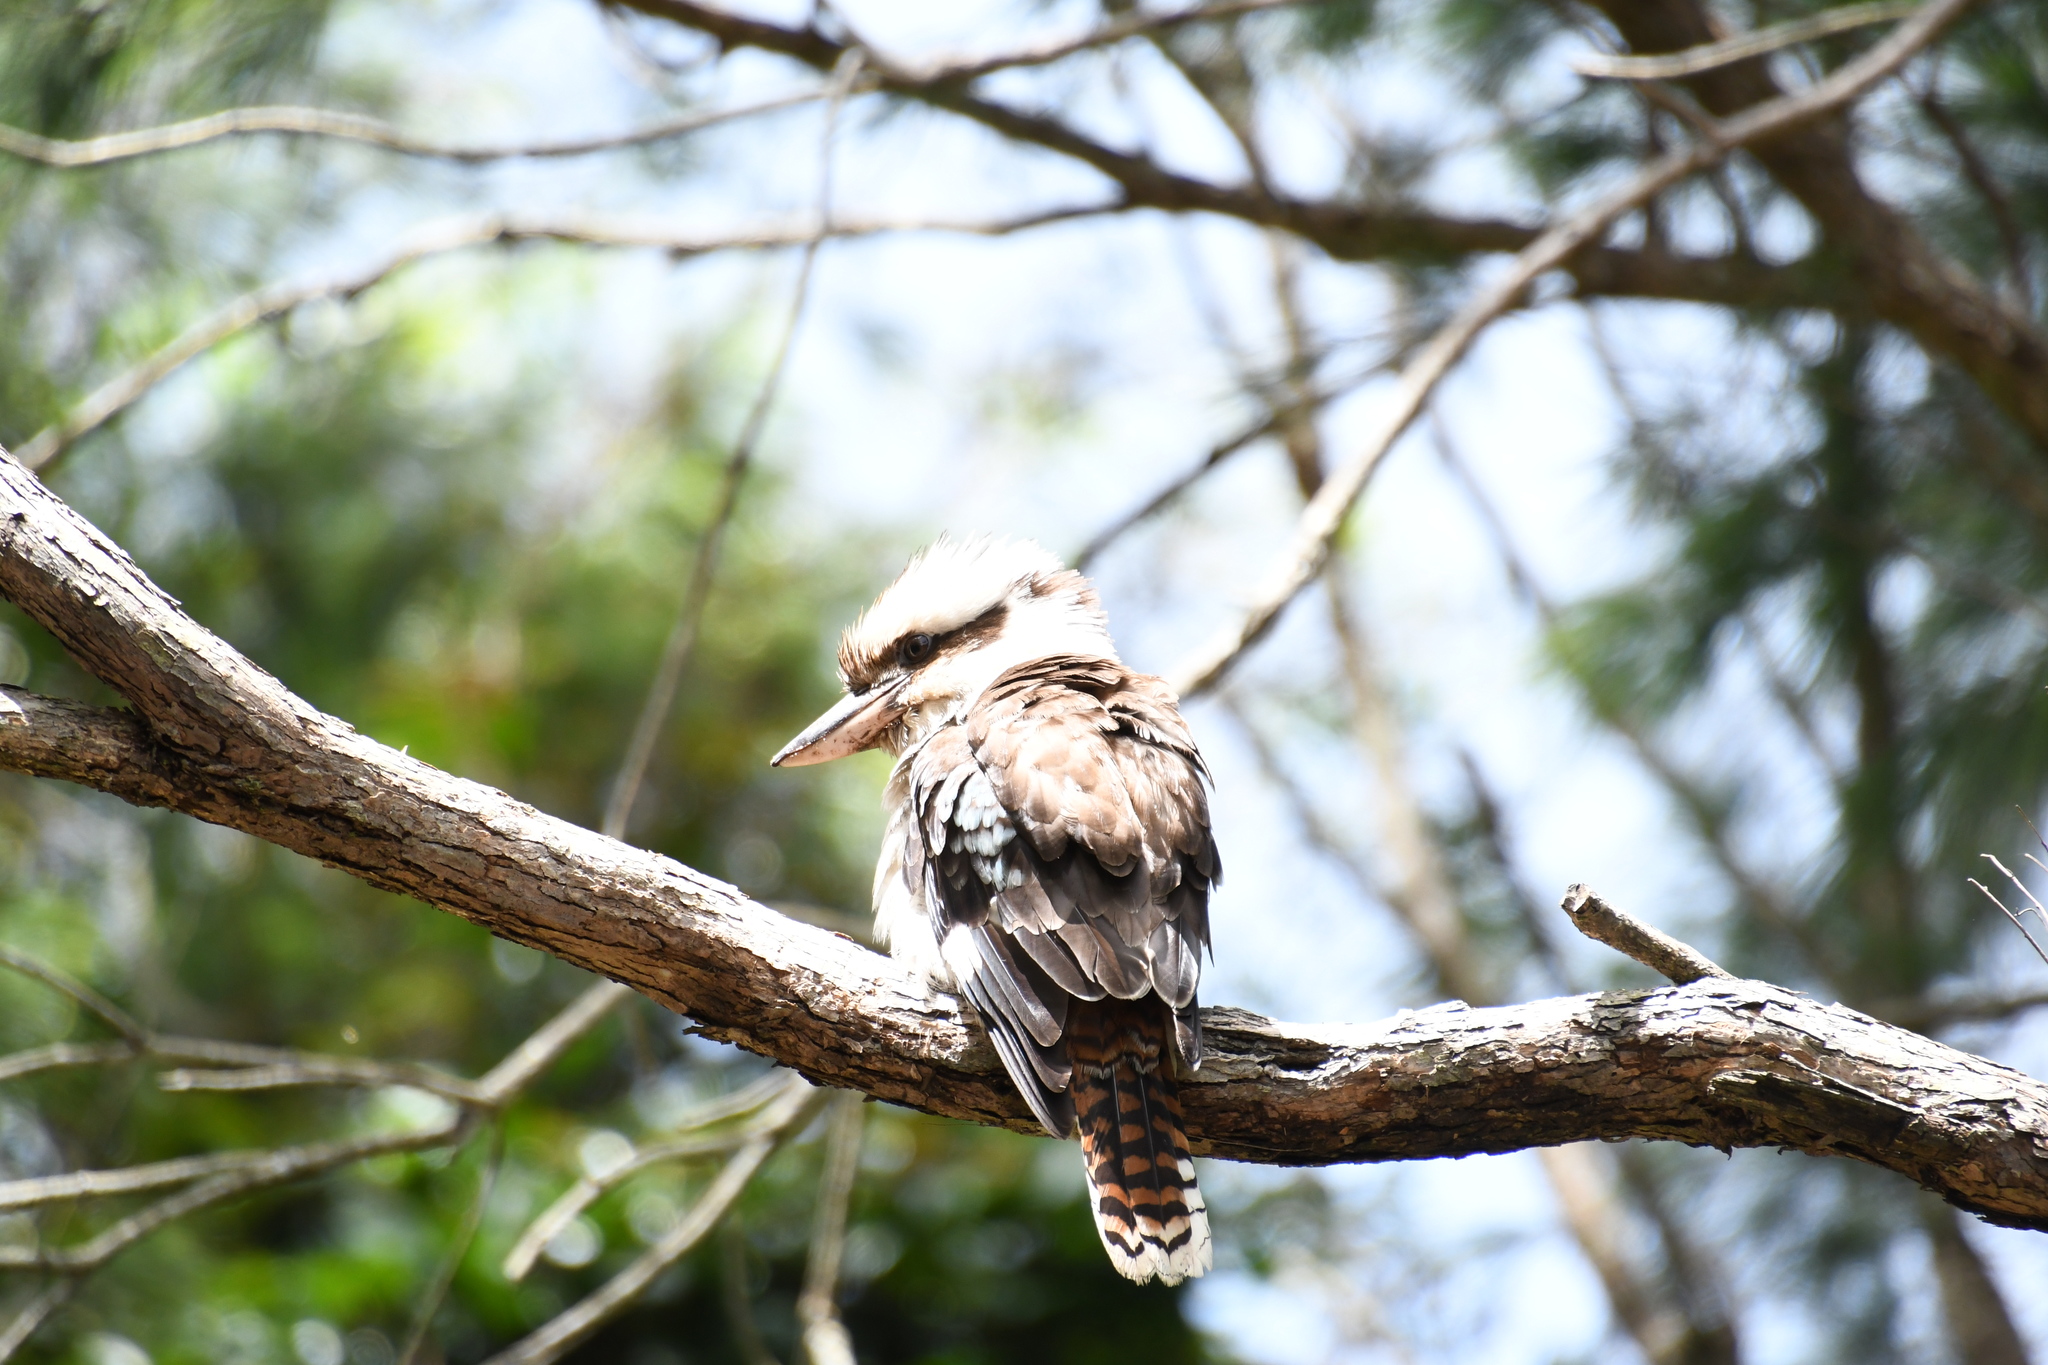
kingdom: Animalia
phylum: Chordata
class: Aves
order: Coraciiformes
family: Alcedinidae
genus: Dacelo
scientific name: Dacelo novaeguineae
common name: Laughing kookaburra
